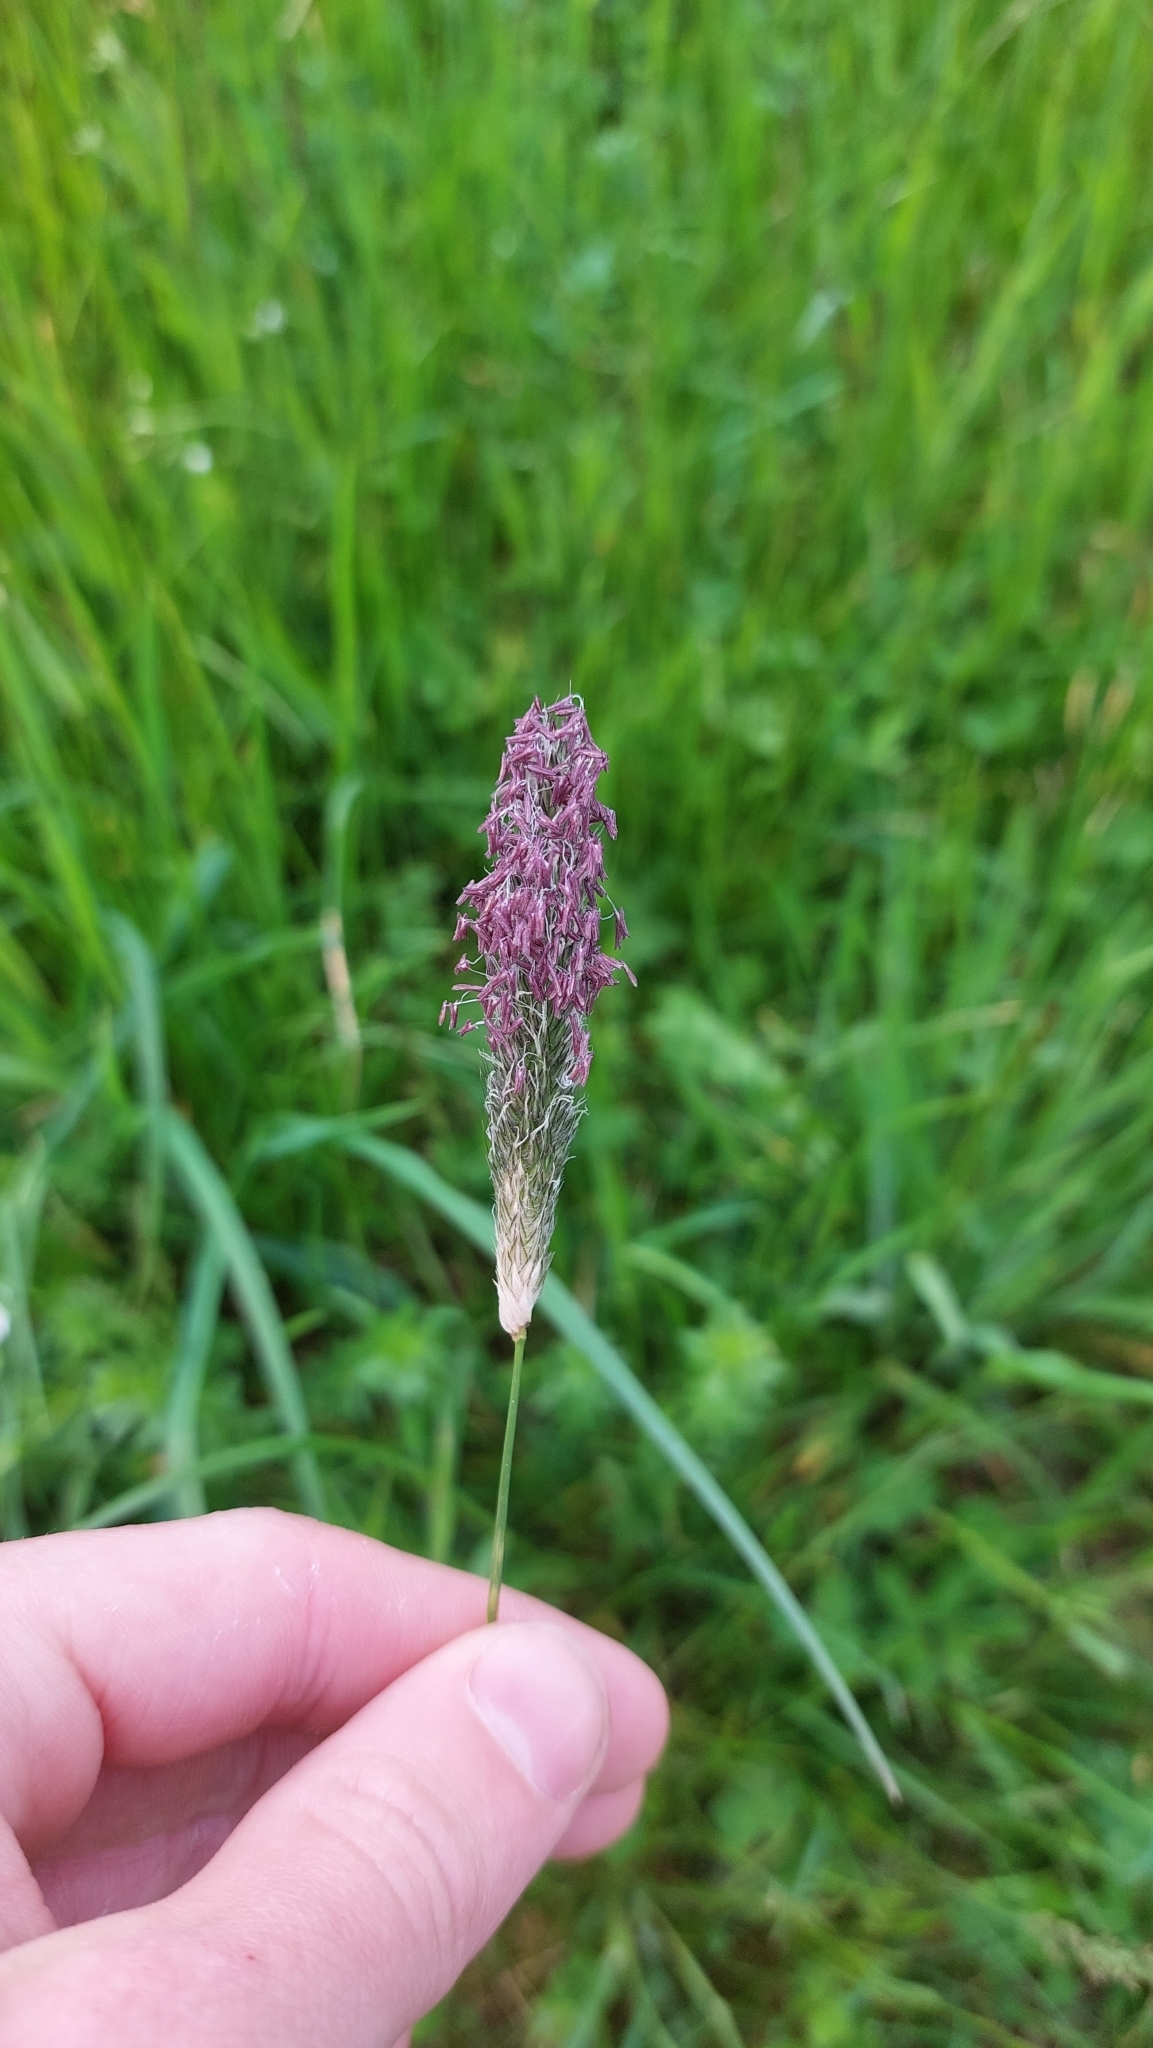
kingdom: Plantae
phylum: Tracheophyta
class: Liliopsida
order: Poales
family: Poaceae
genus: Alopecurus
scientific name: Alopecurus pratensis
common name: Meadow foxtail
